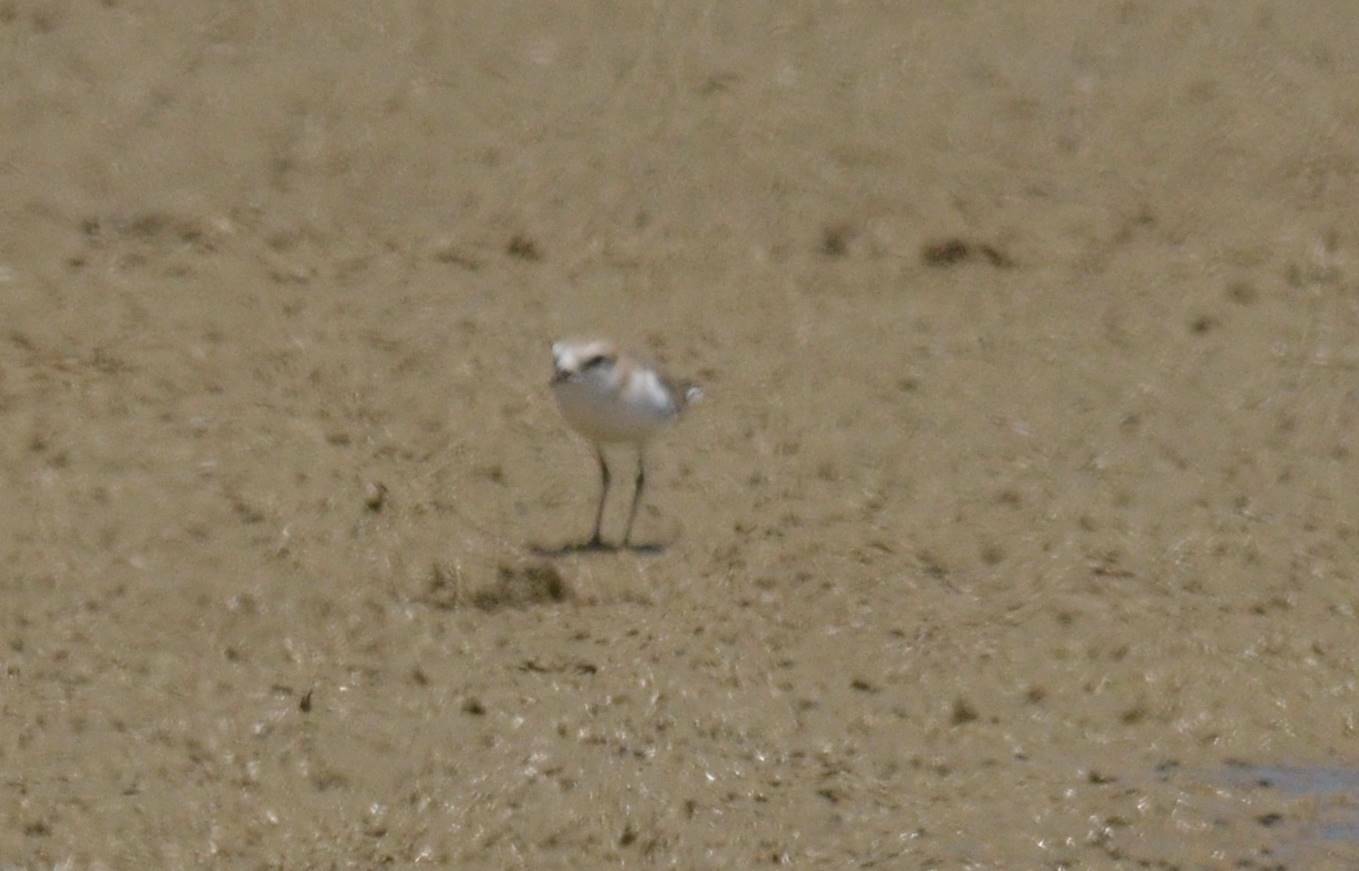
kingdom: Animalia
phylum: Chordata
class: Aves
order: Charadriiformes
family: Charadriidae
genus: Charadrius
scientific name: Charadrius alexandrinus
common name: Kentish plover
